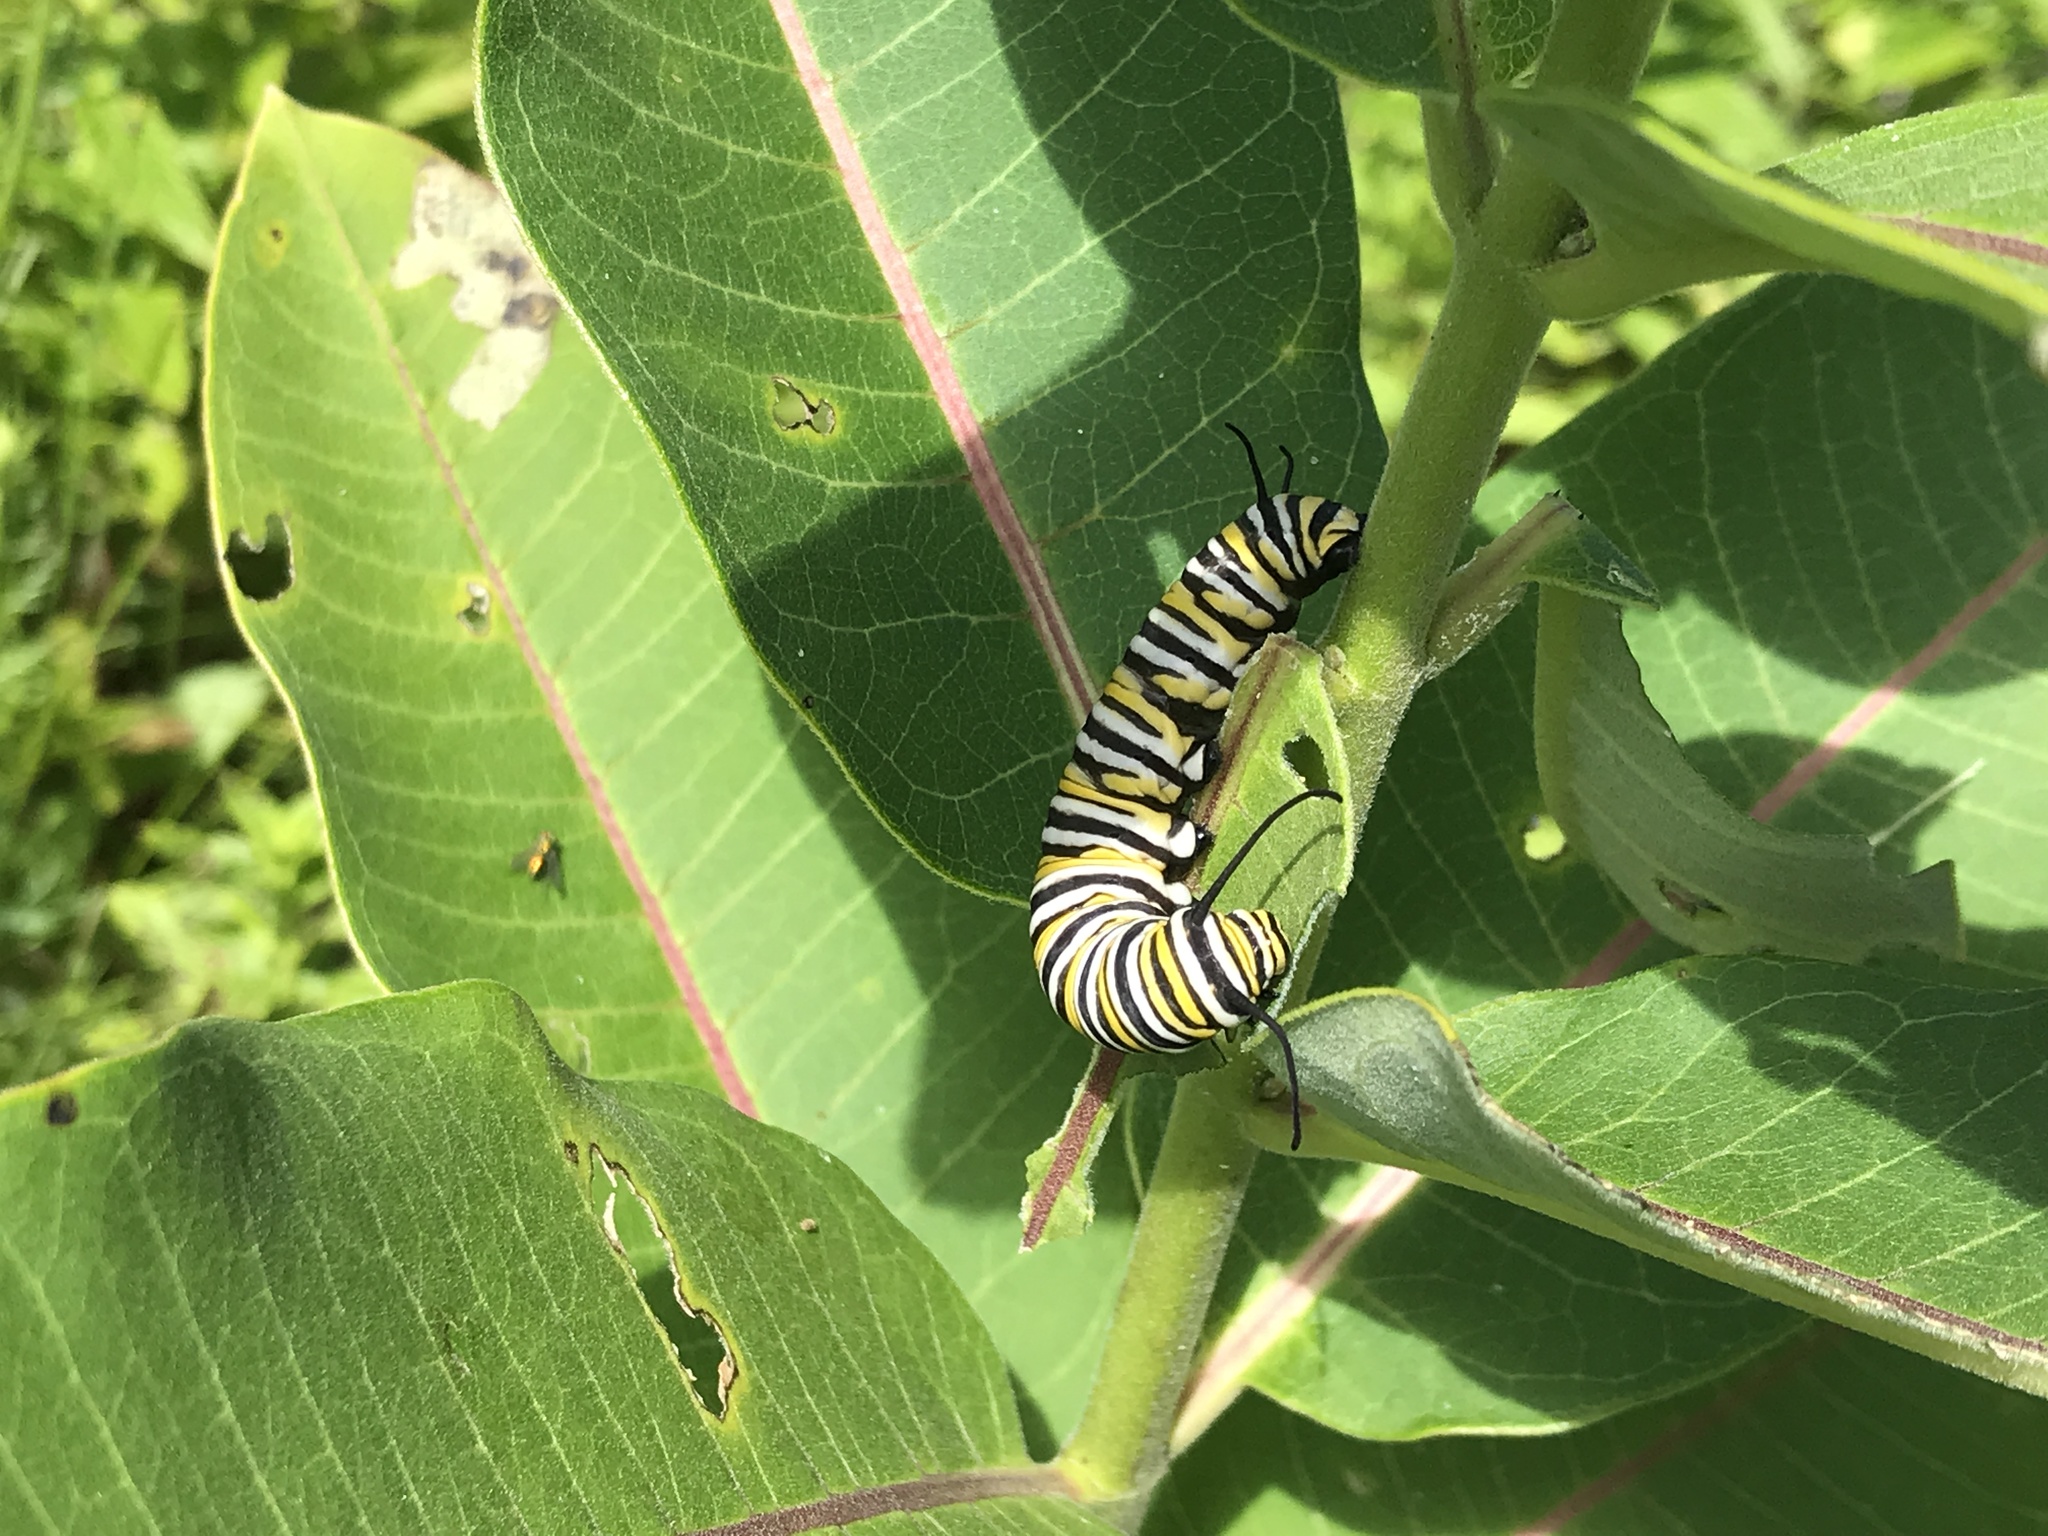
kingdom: Animalia
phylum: Arthropoda
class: Insecta
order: Lepidoptera
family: Nymphalidae
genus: Danaus
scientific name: Danaus plexippus
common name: Monarch
